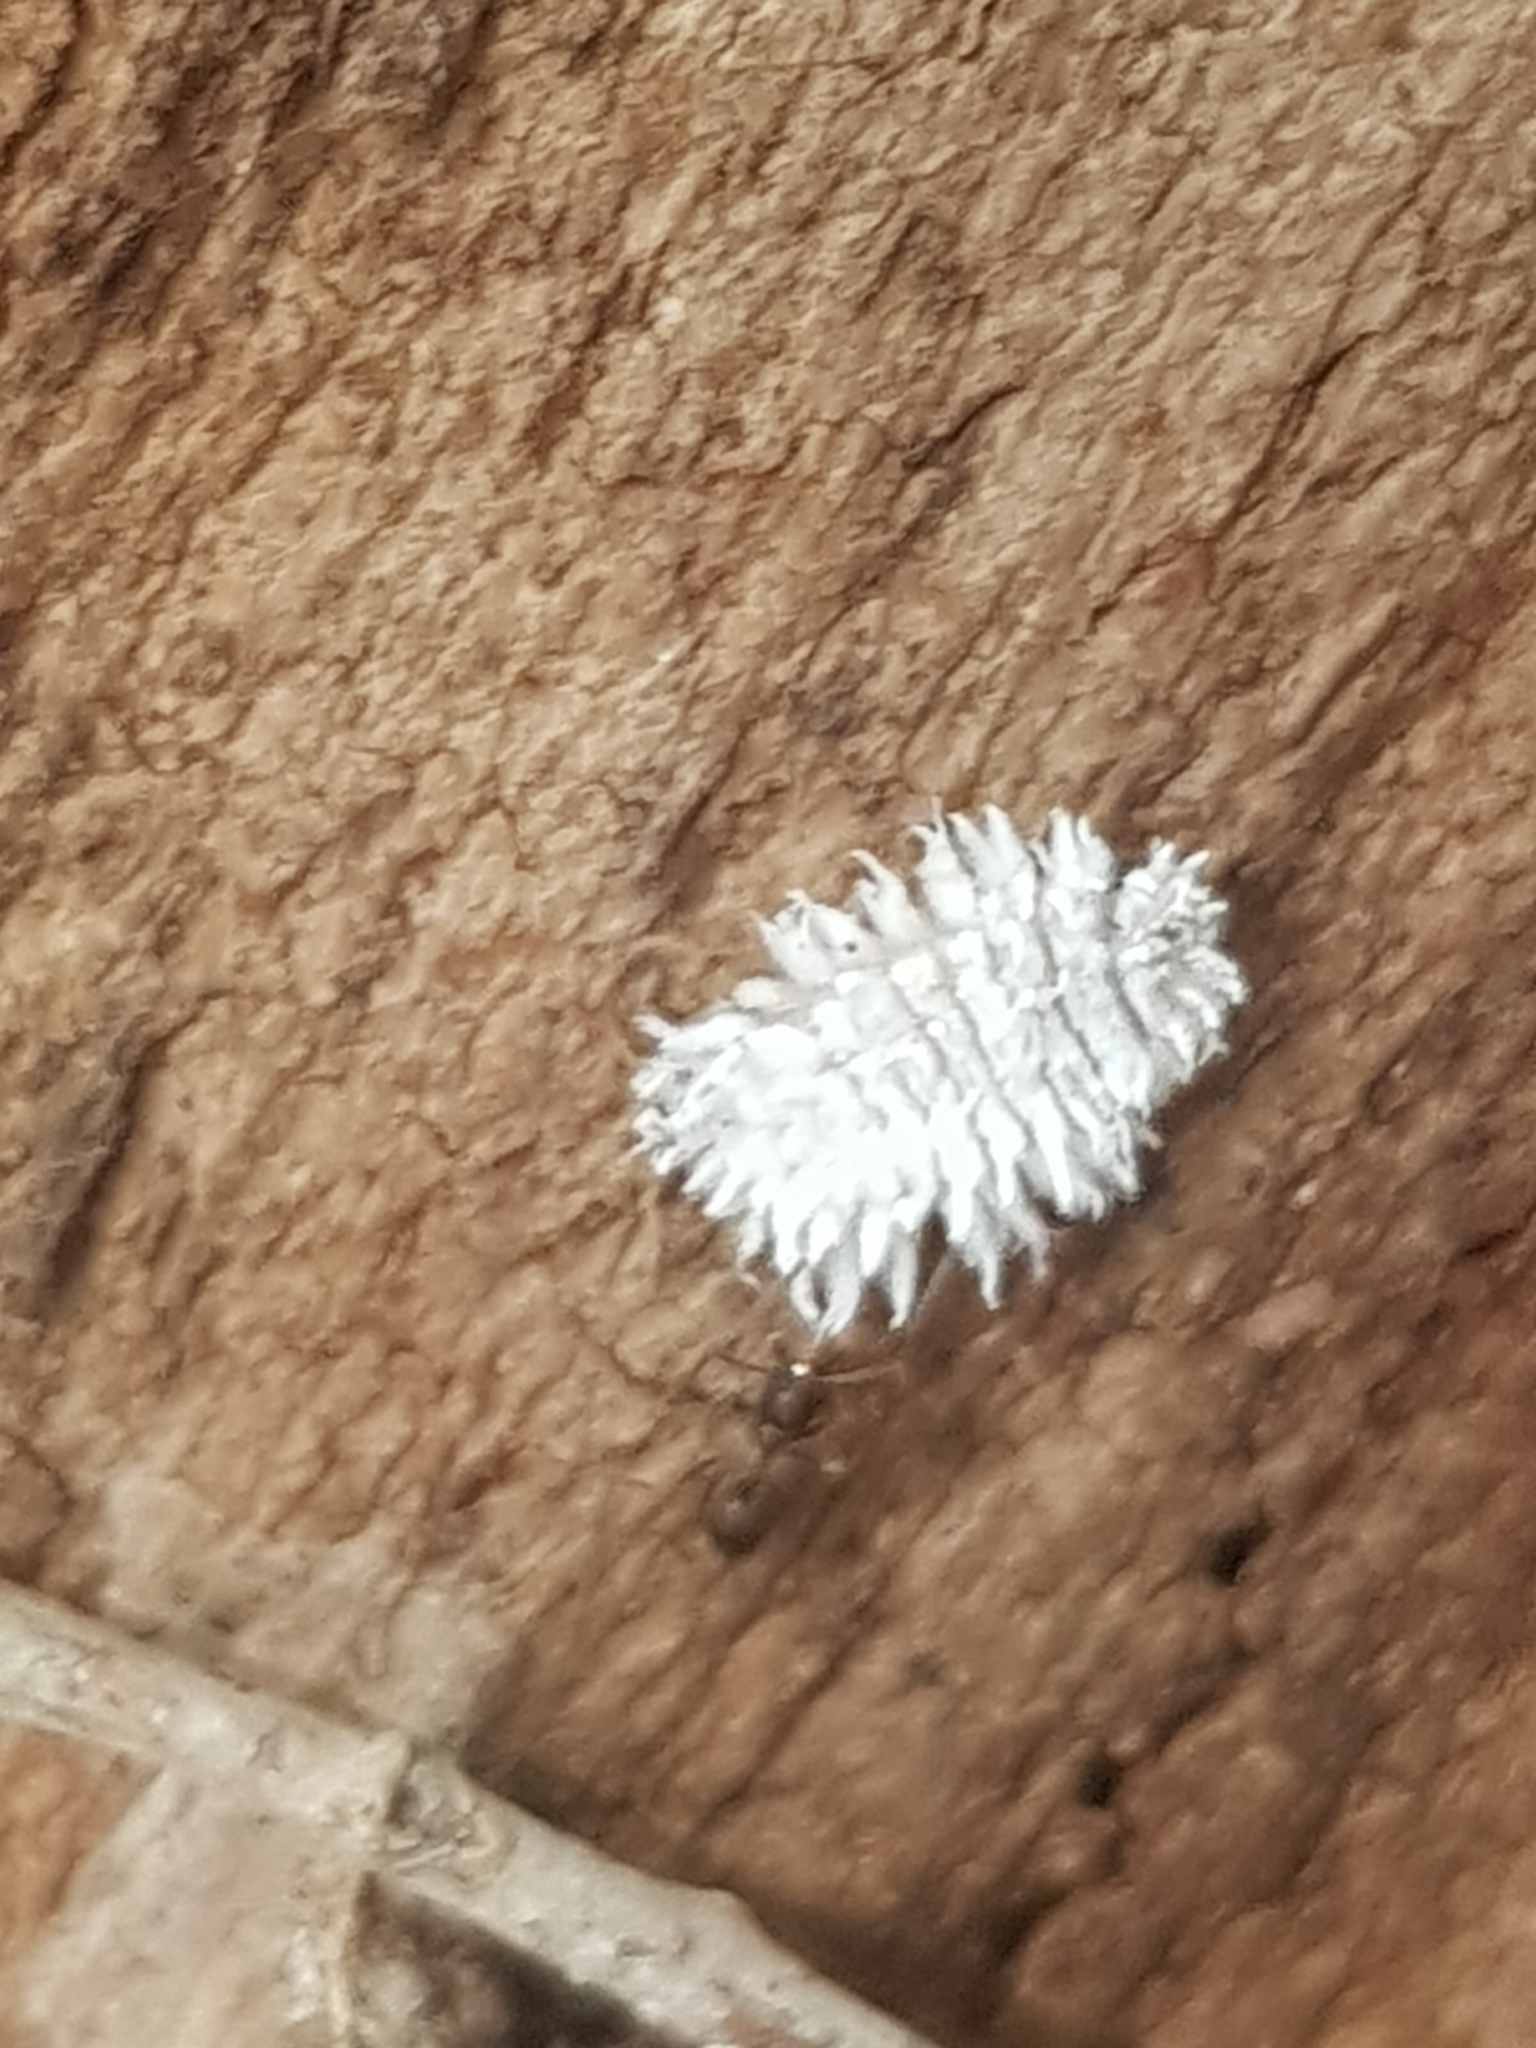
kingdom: Animalia
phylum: Arthropoda
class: Insecta
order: Coleoptera
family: Coccinellidae
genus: Cryptolaemus
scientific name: Cryptolaemus montrouzieri
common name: Mealybug destroyer
